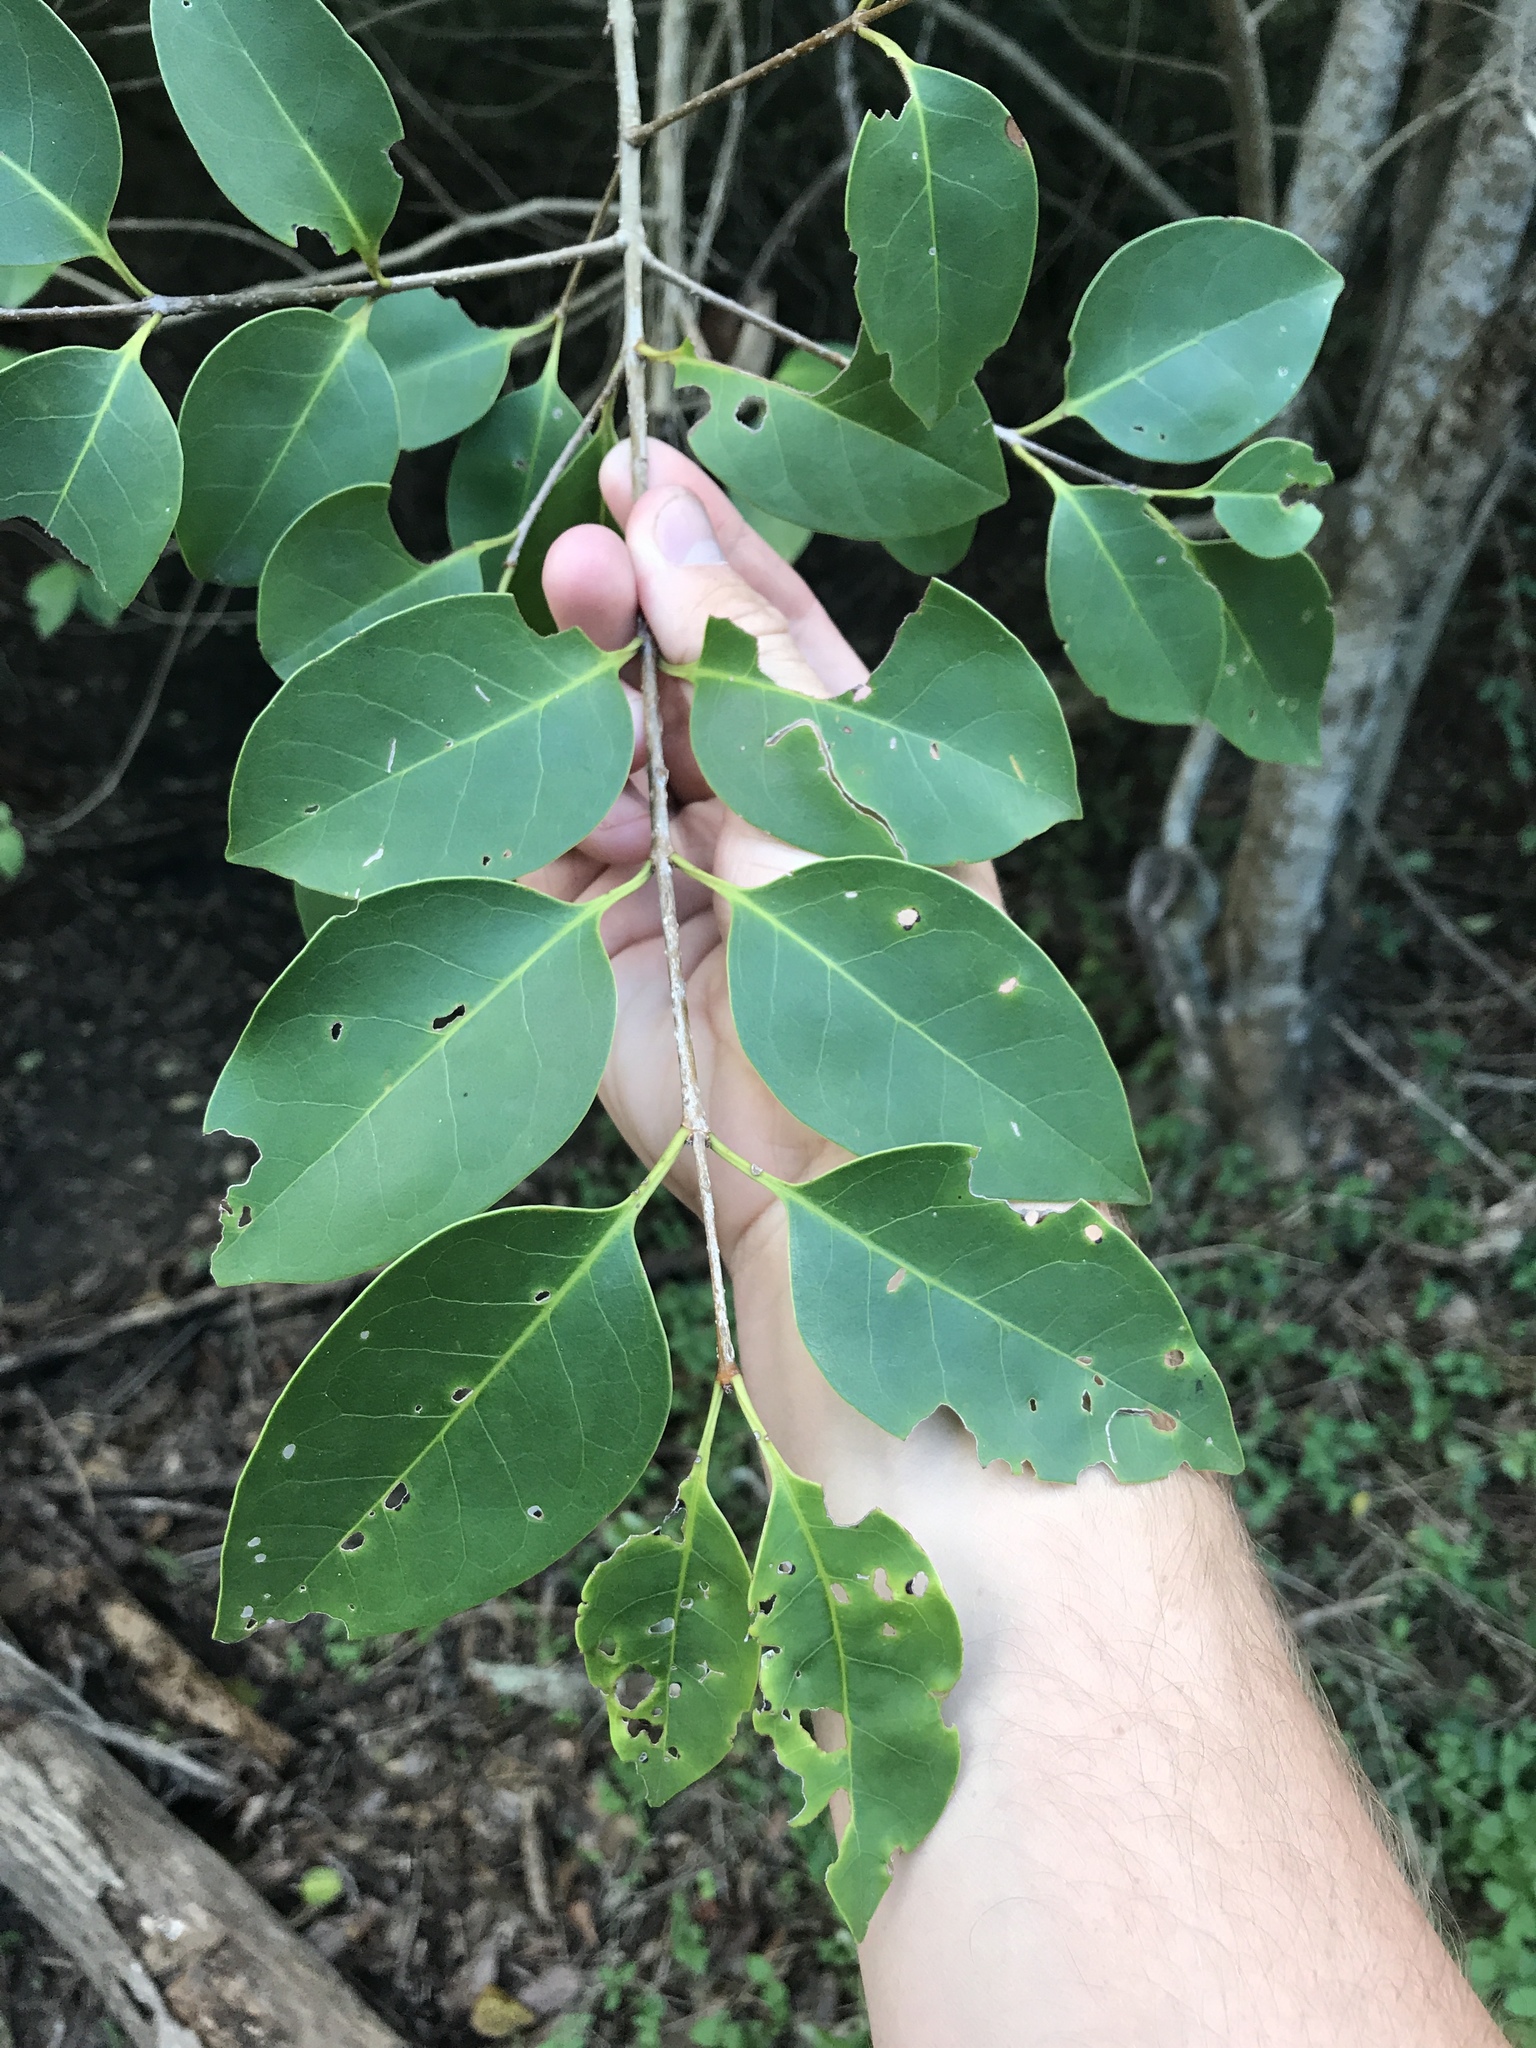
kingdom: Plantae
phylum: Tracheophyta
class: Magnoliopsida
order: Lamiales
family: Oleaceae
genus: Ligustrum
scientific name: Ligustrum lucidum
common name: Glossy privet
